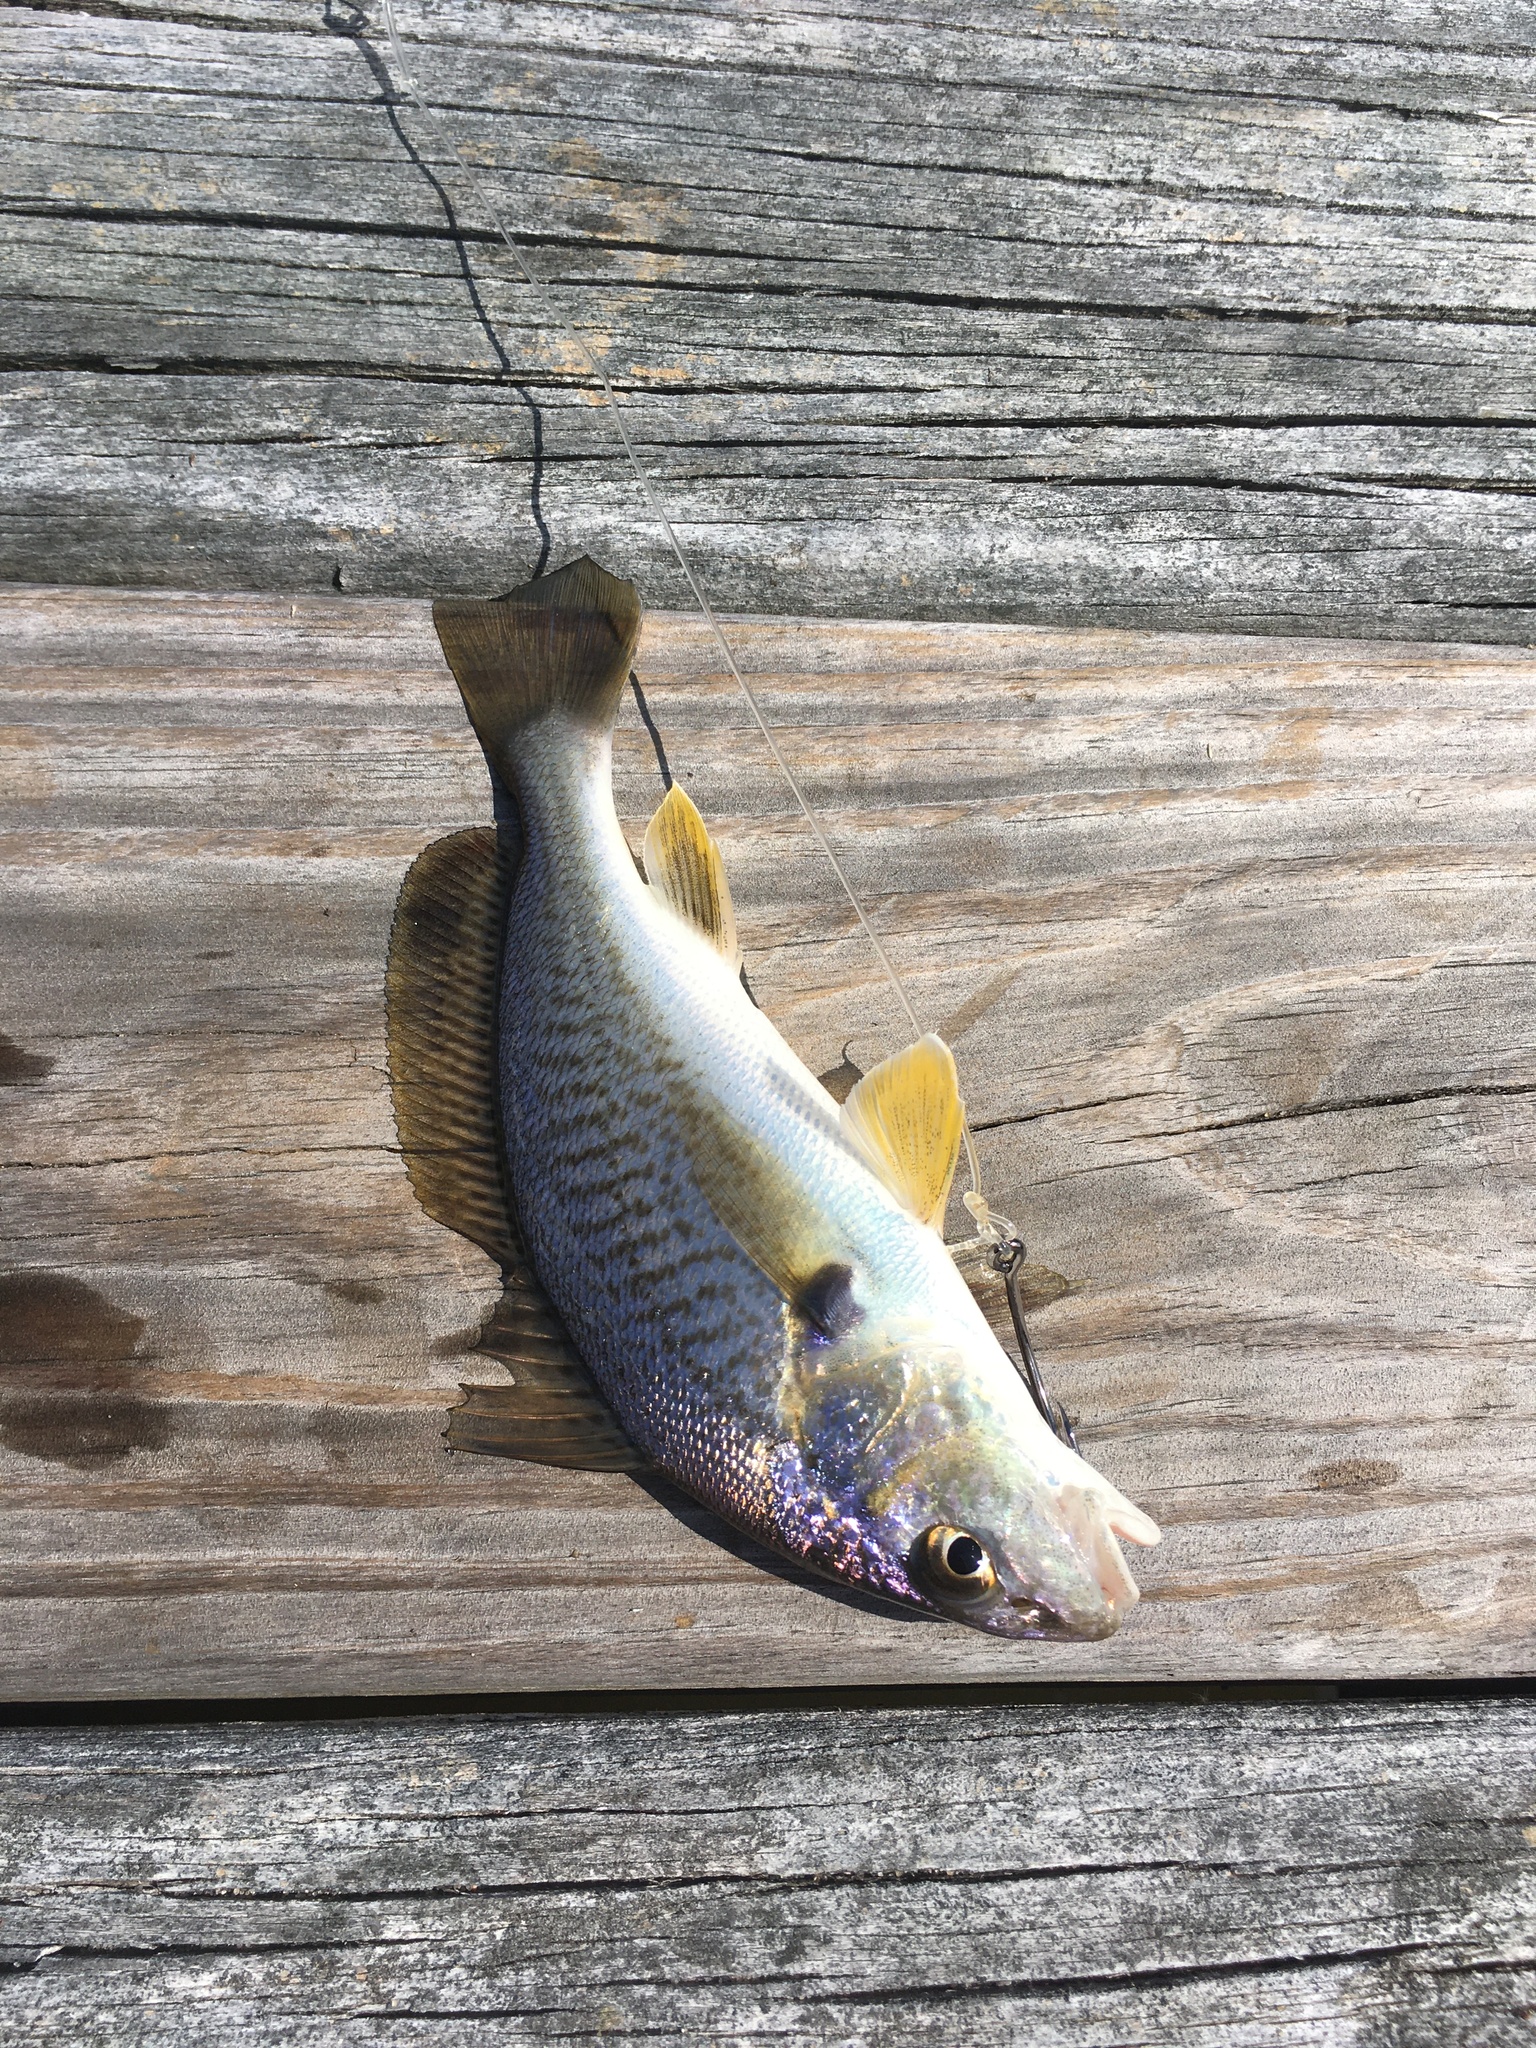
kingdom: Animalia
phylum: Chordata
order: Perciformes
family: Sciaenidae
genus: Micropogonias
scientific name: Micropogonias undulatus
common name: Atlantic croaker
